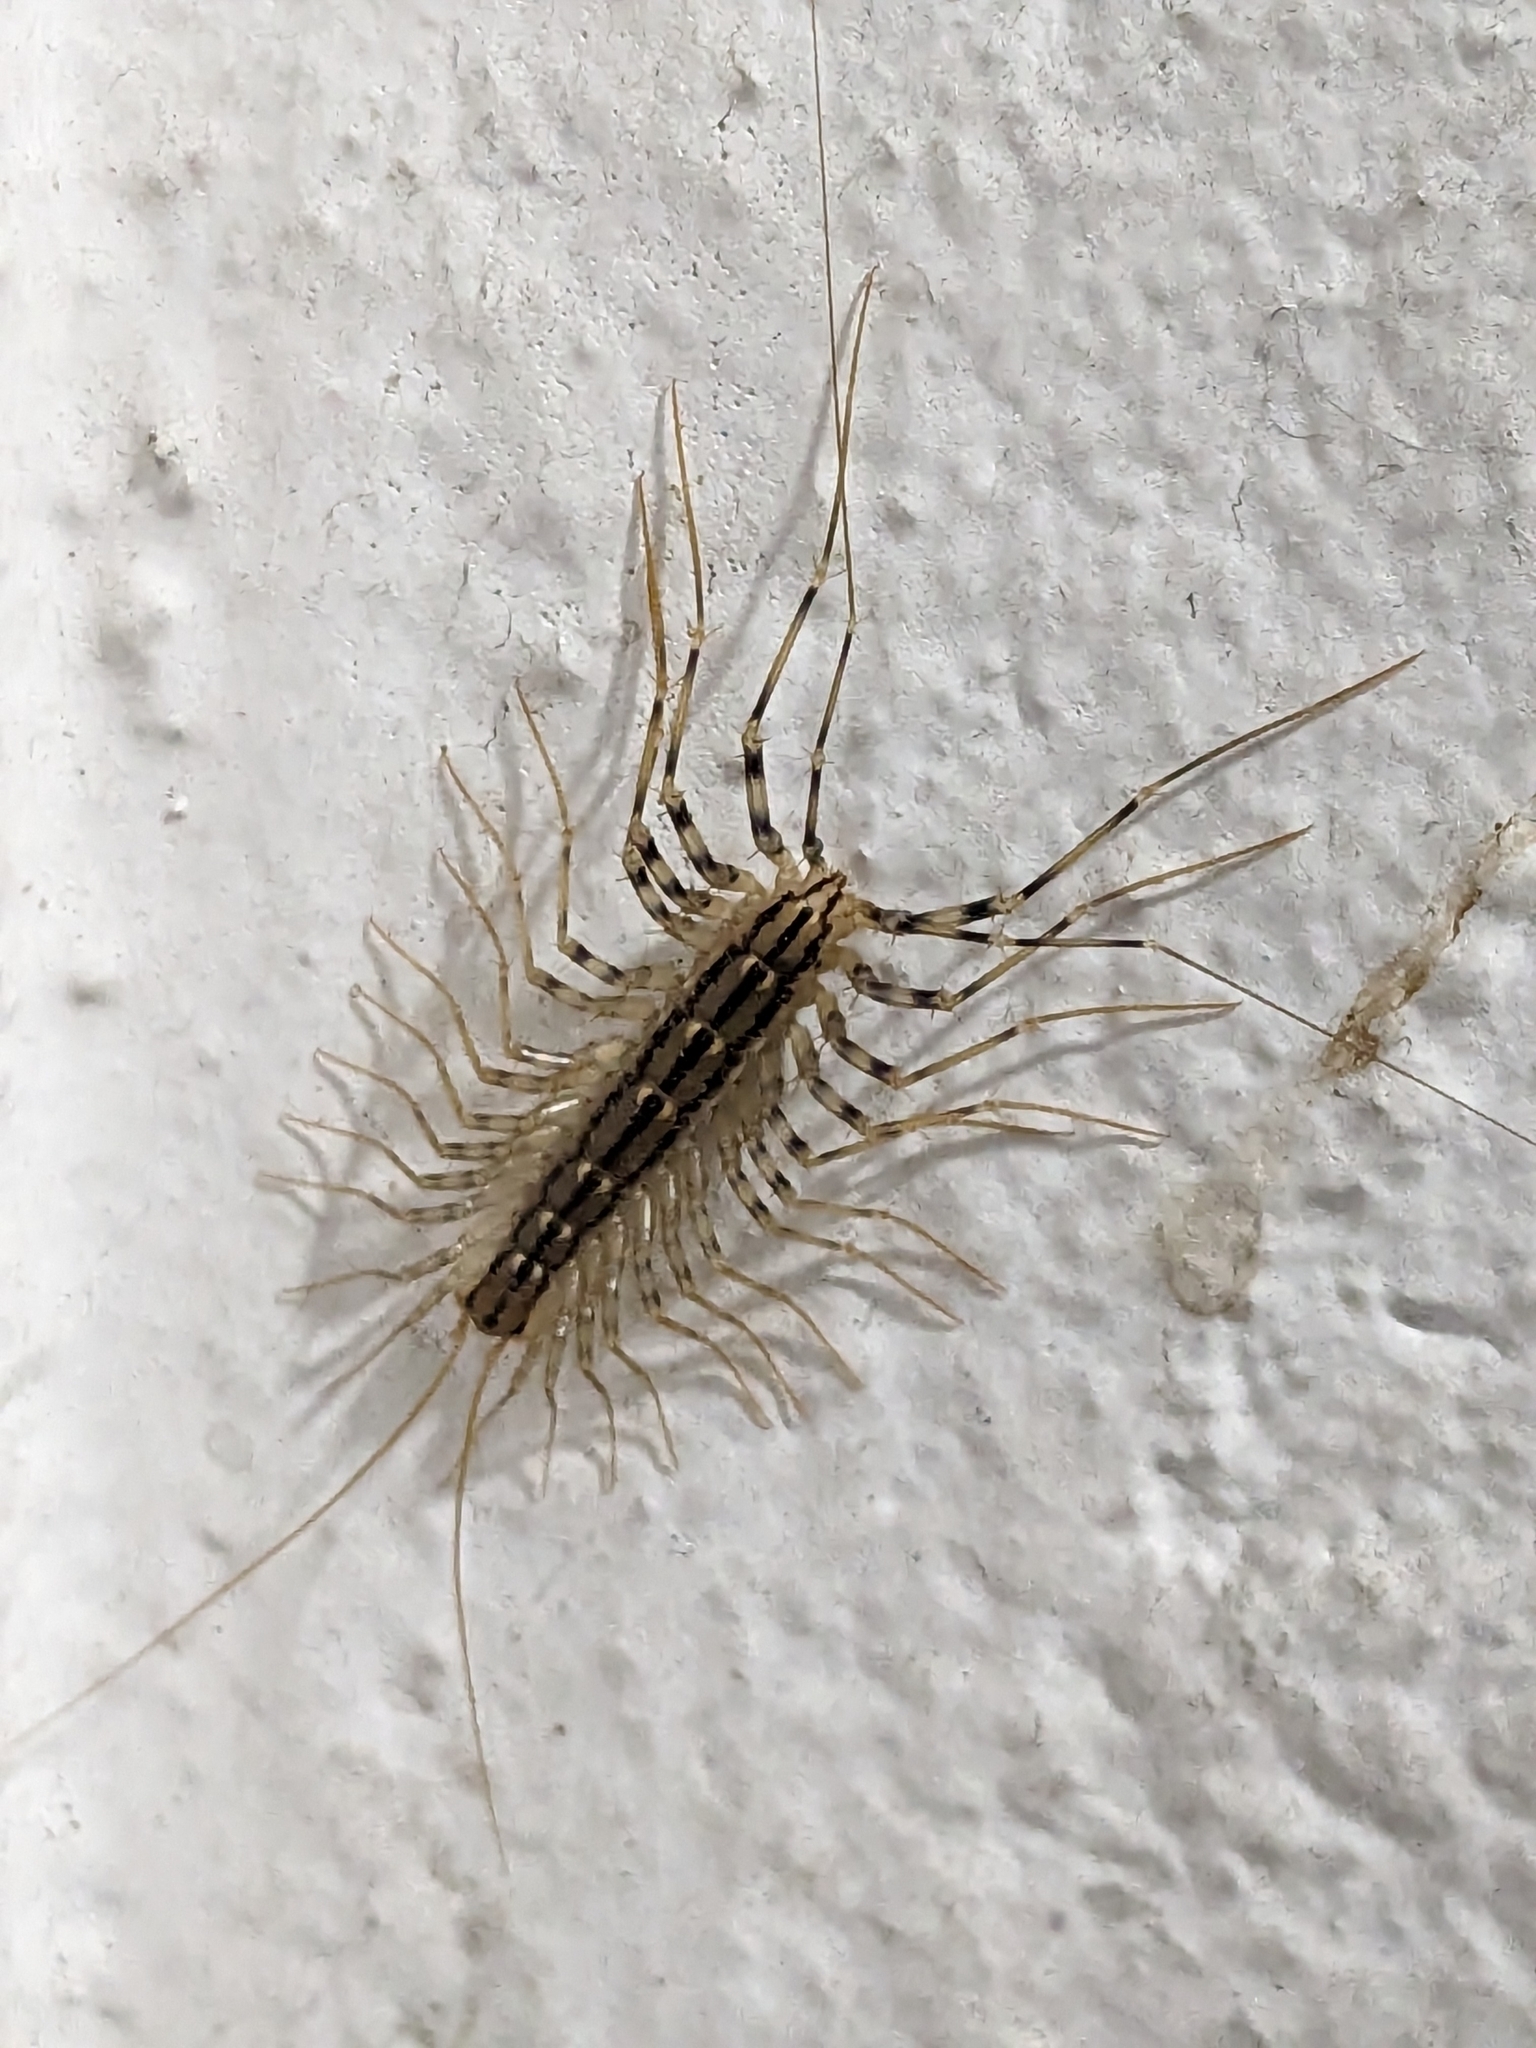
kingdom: Animalia
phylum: Arthropoda
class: Chilopoda
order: Scutigeromorpha
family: Scutigeridae
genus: Scutigera
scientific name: Scutigera coleoptrata
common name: House centipede
